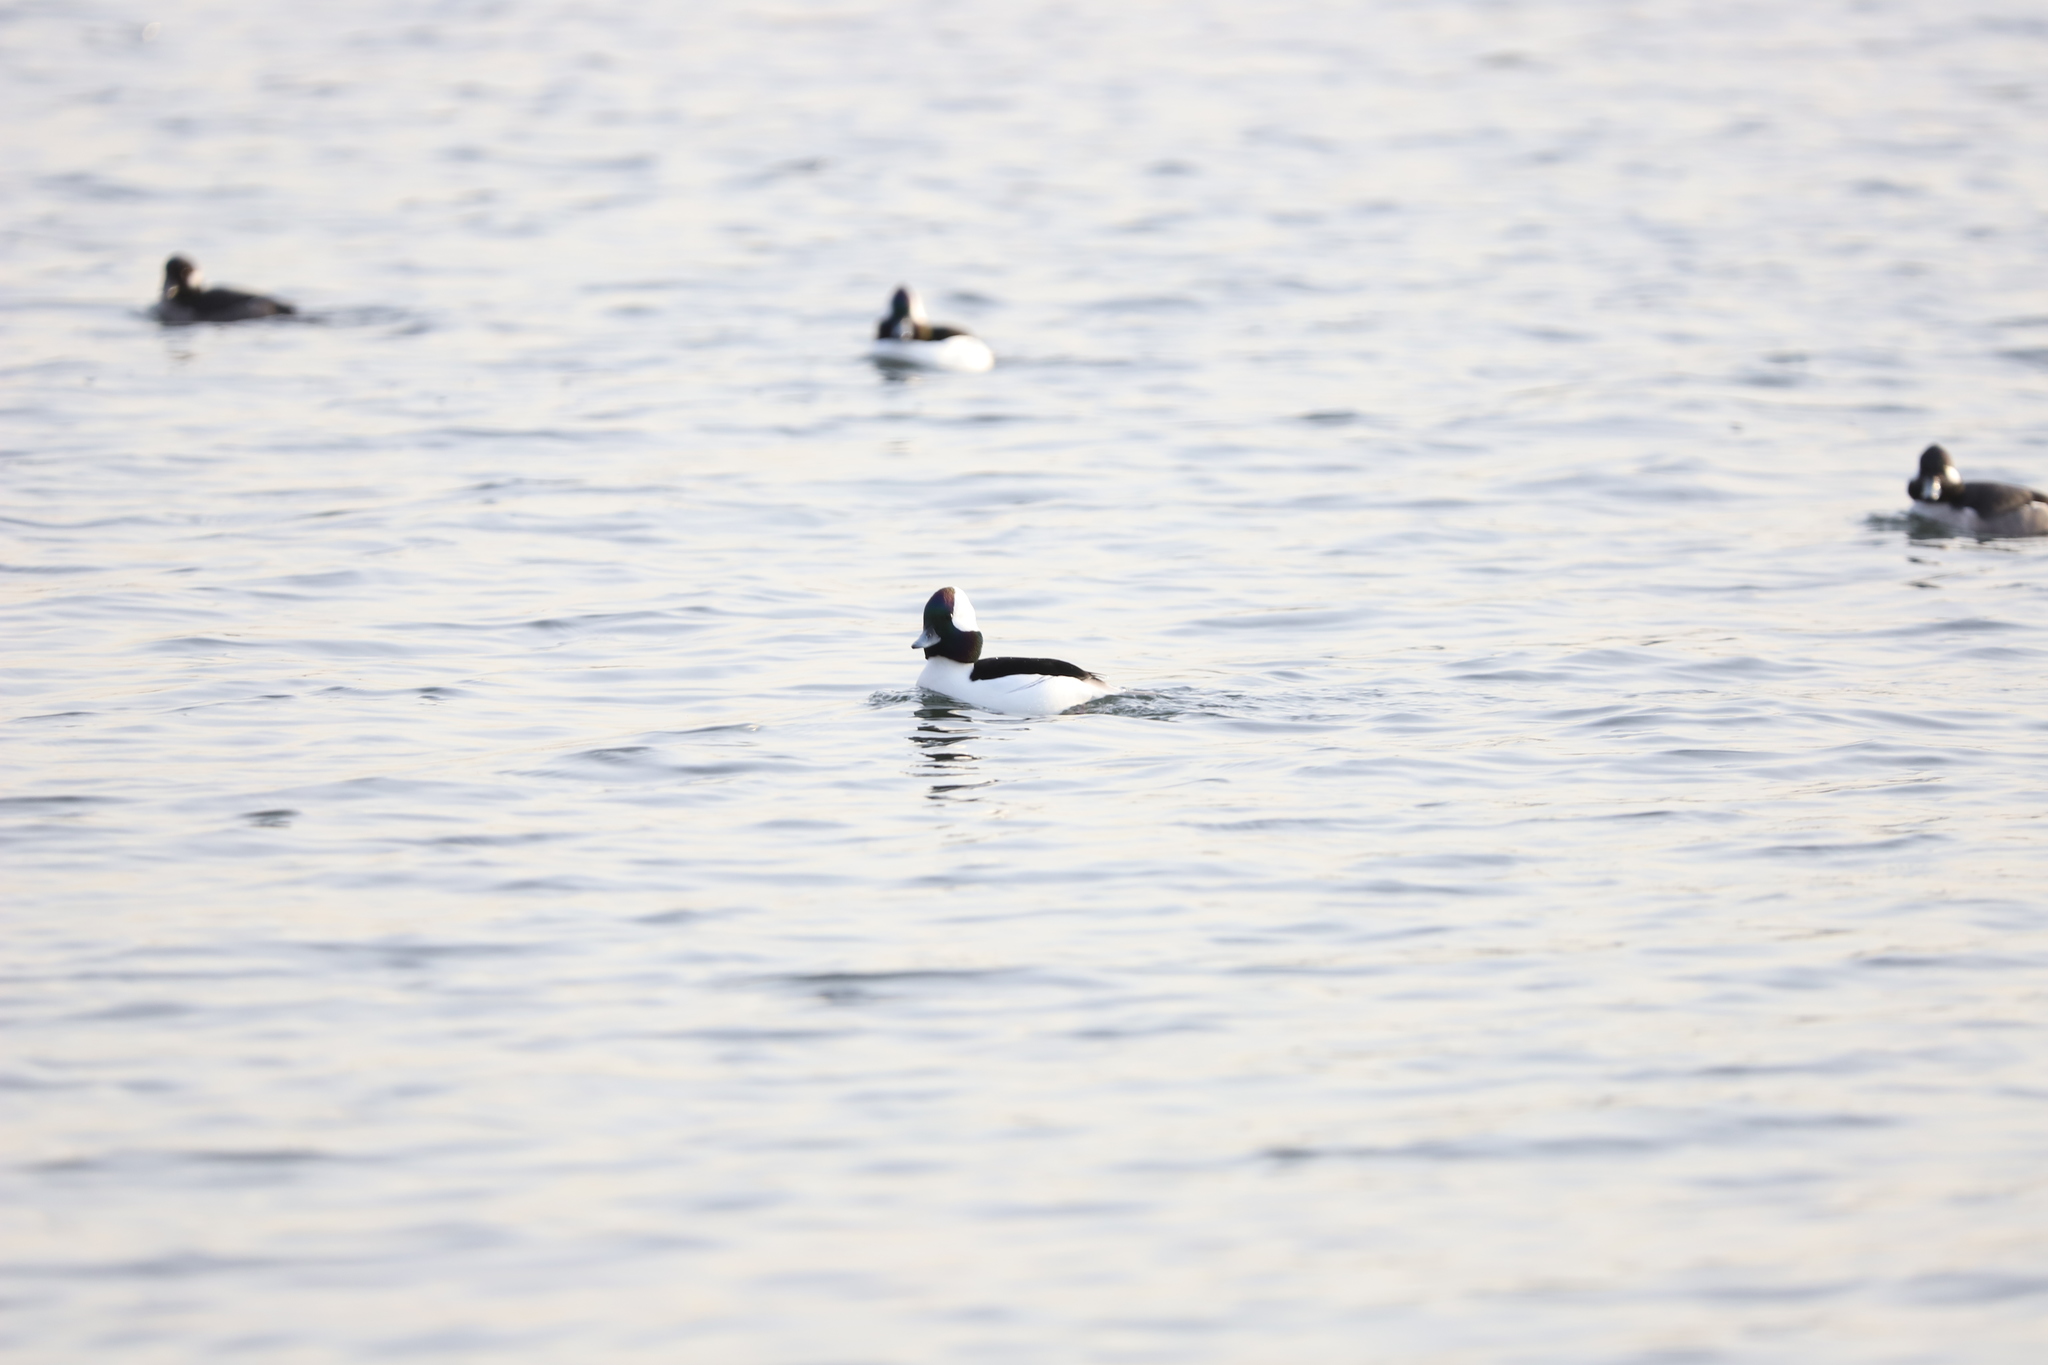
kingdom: Animalia
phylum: Chordata
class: Aves
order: Anseriformes
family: Anatidae
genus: Bucephala
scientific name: Bucephala albeola
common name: Bufflehead
